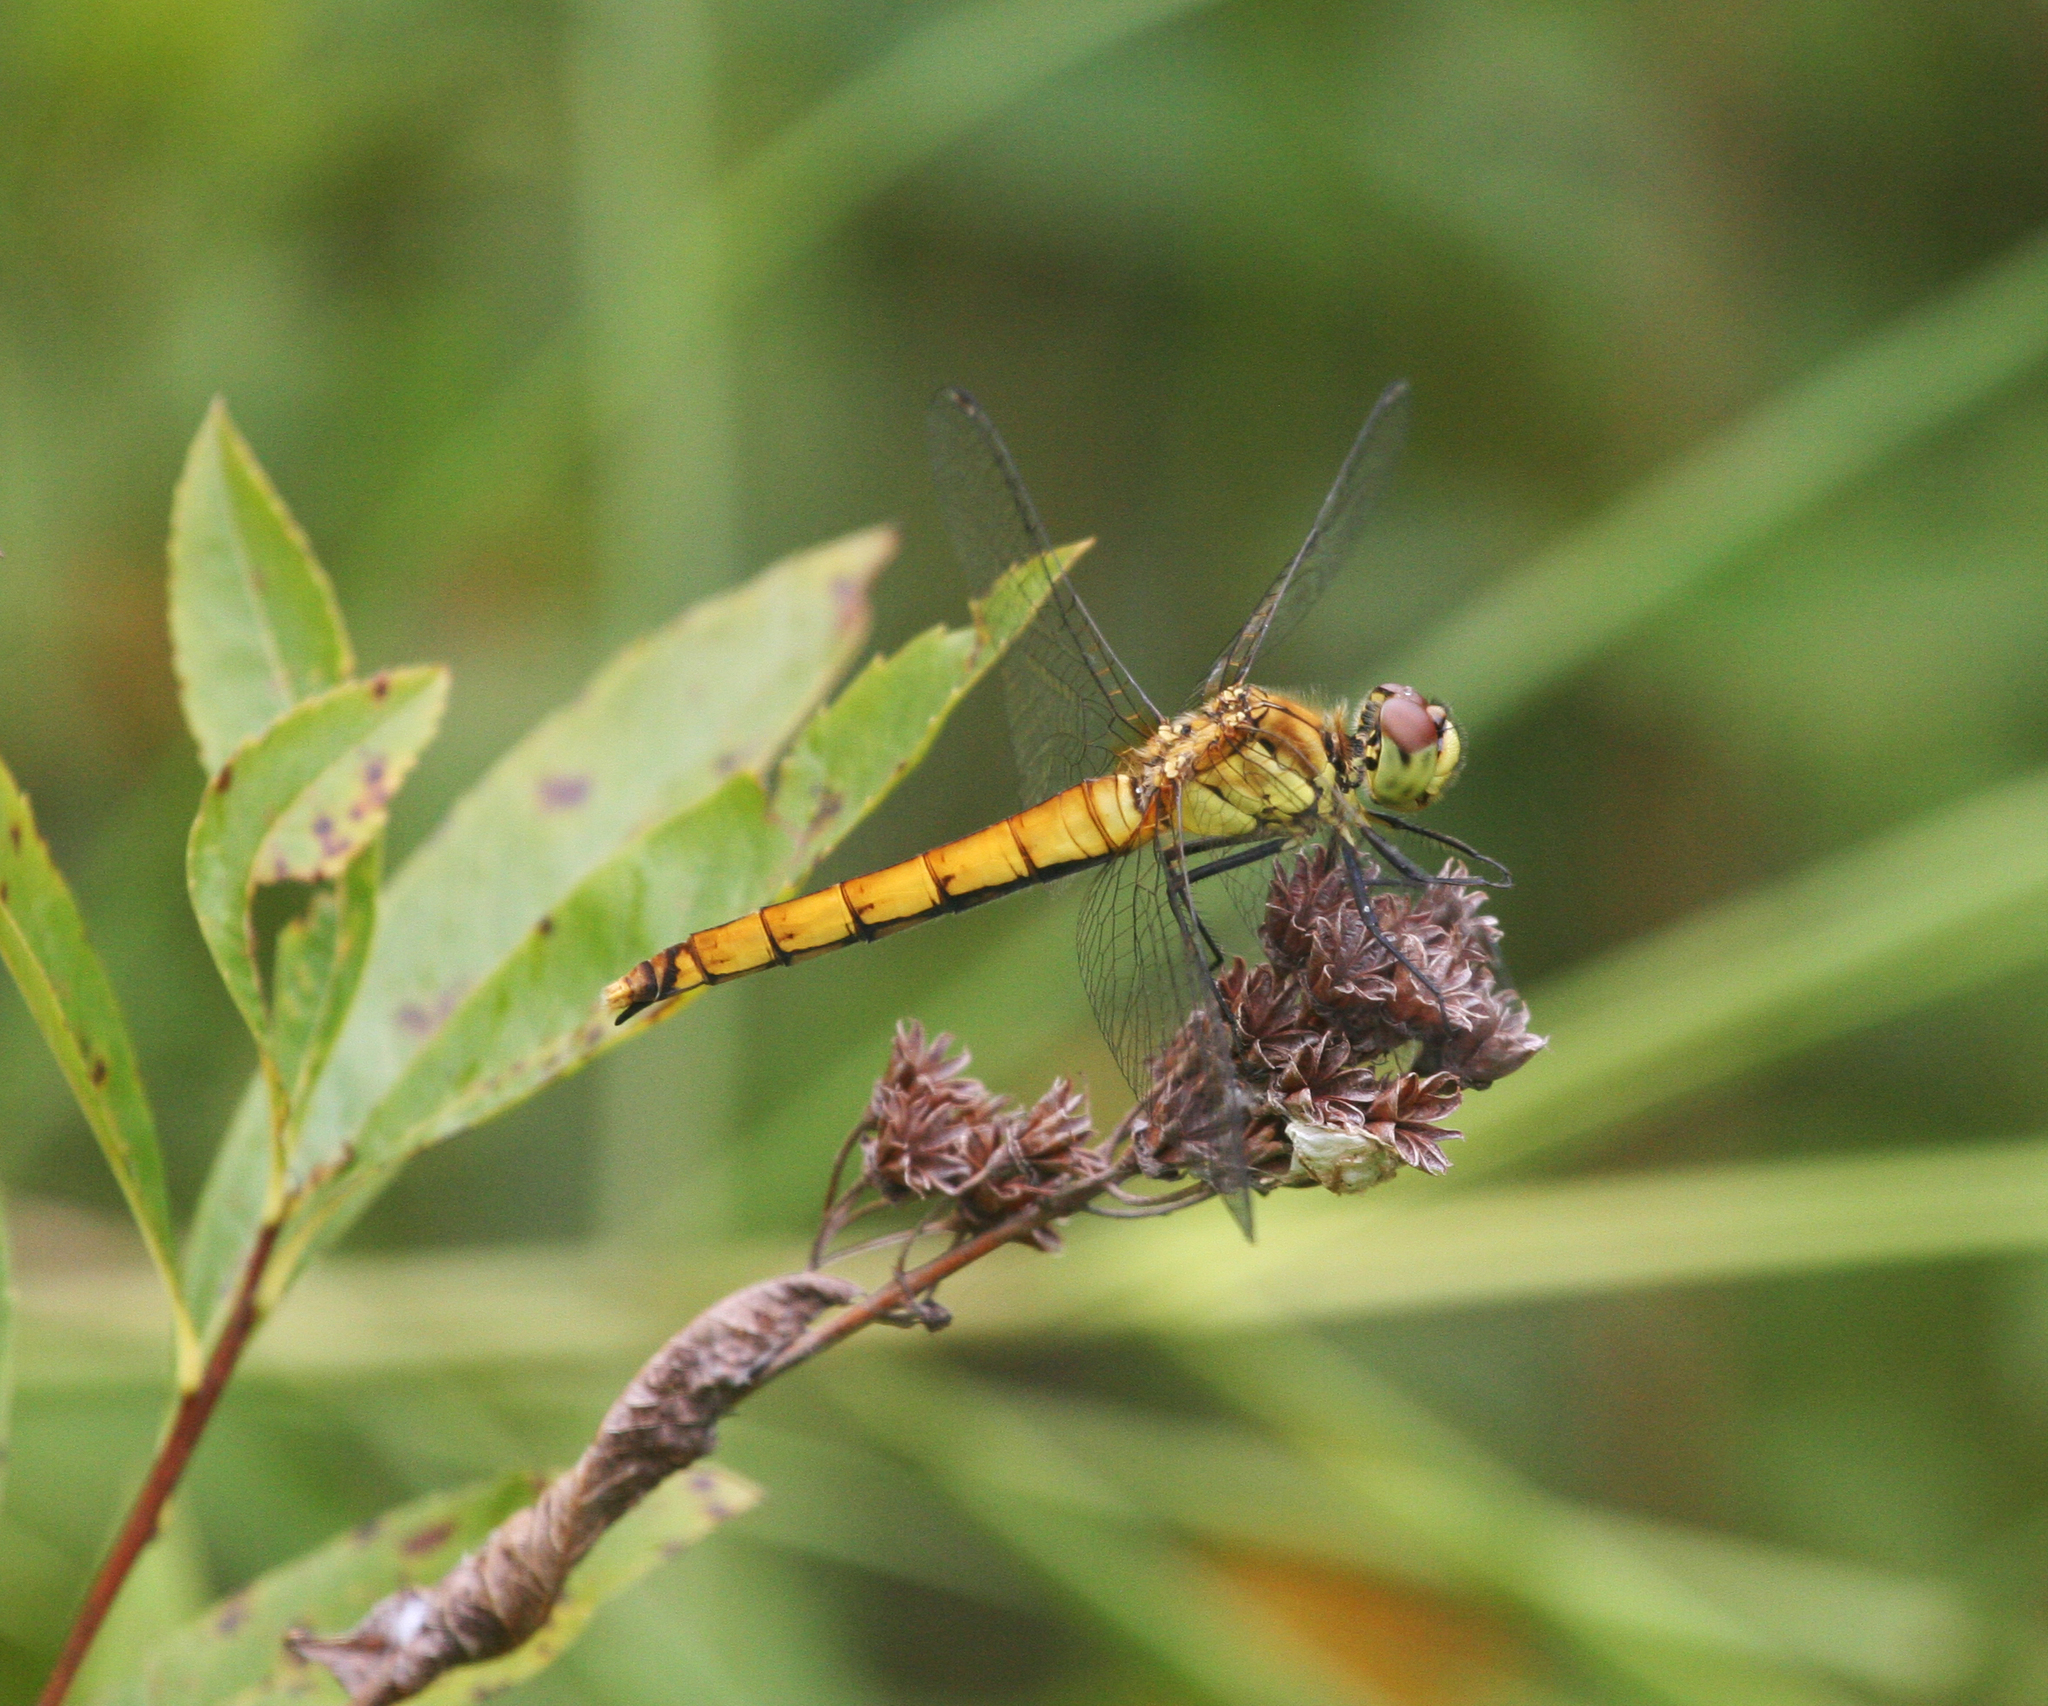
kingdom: Animalia
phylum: Arthropoda
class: Insecta
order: Odonata
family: Libellulidae
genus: Sympetrum
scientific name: Sympetrum cordulegaster
